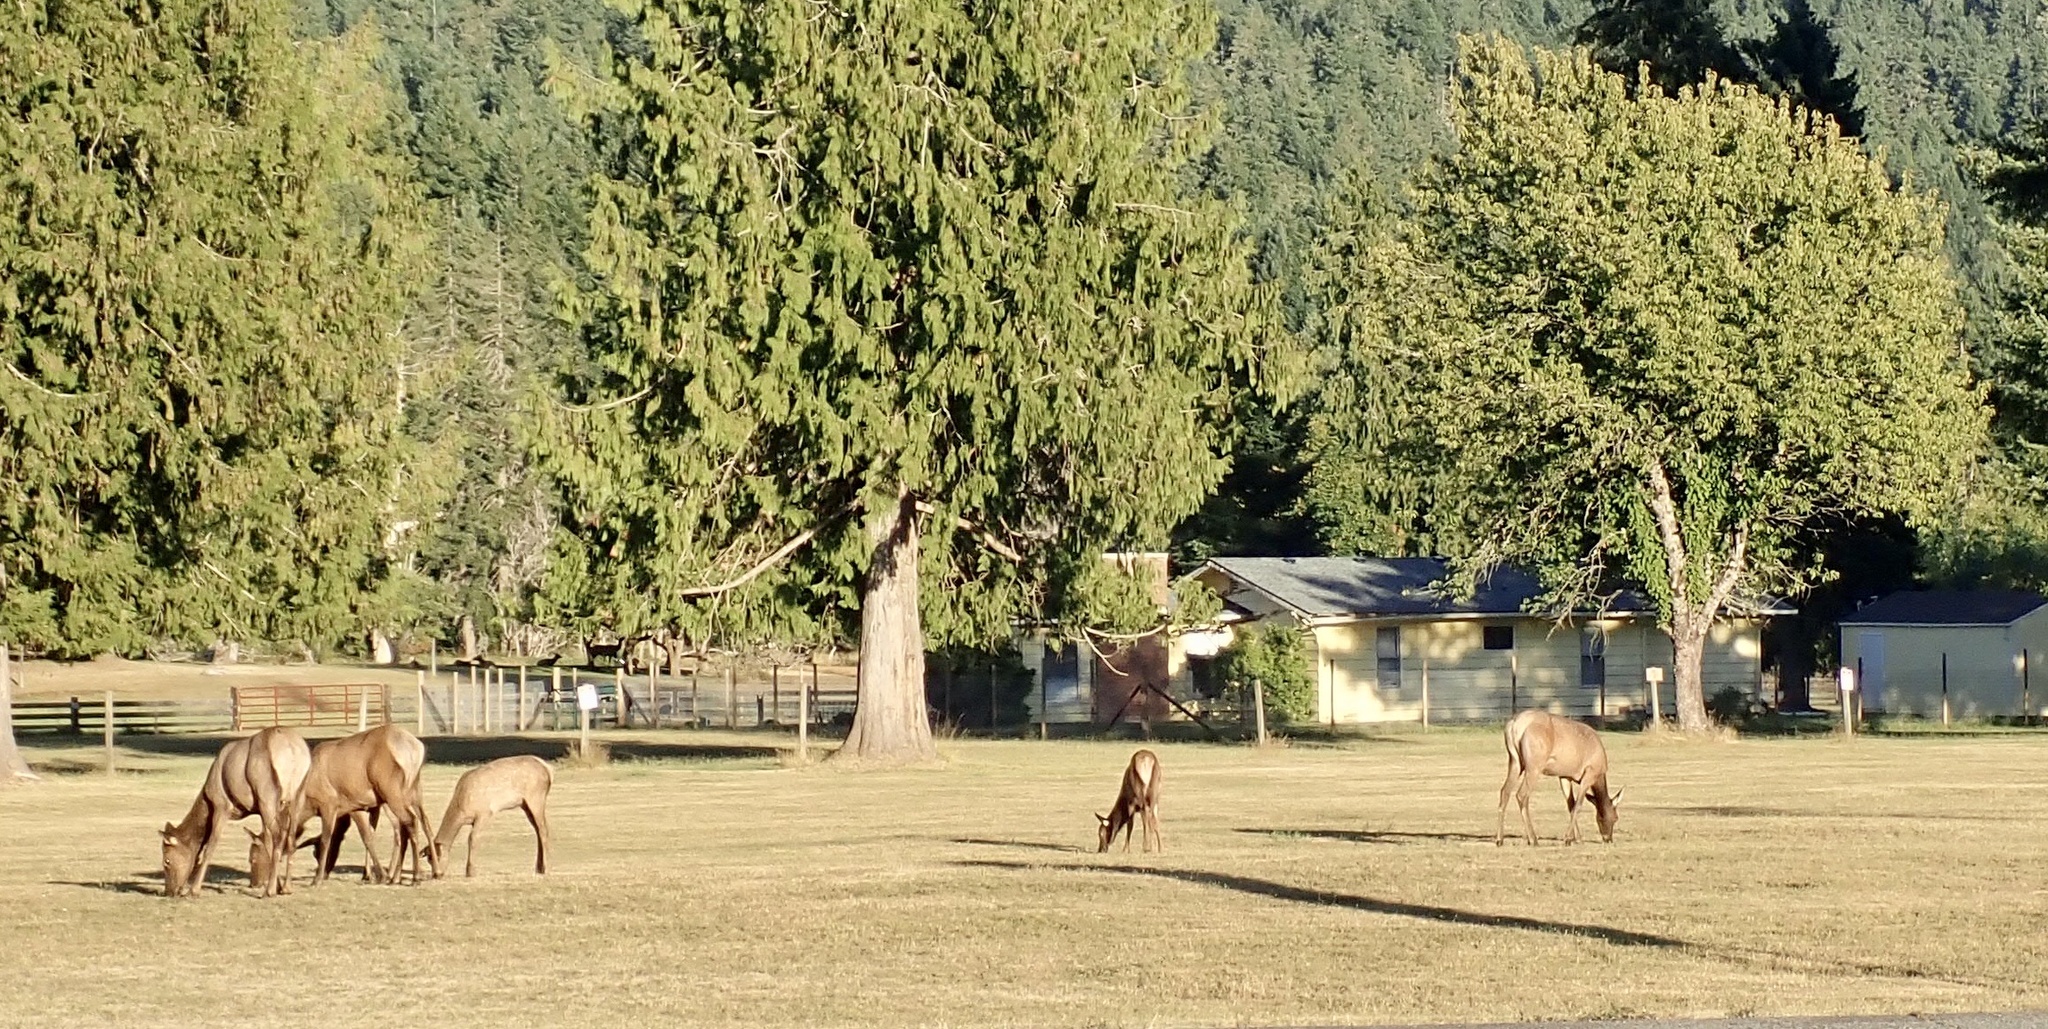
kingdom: Animalia
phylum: Chordata
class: Mammalia
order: Artiodactyla
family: Cervidae
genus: Cervus
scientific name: Cervus elaphus
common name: Red deer
